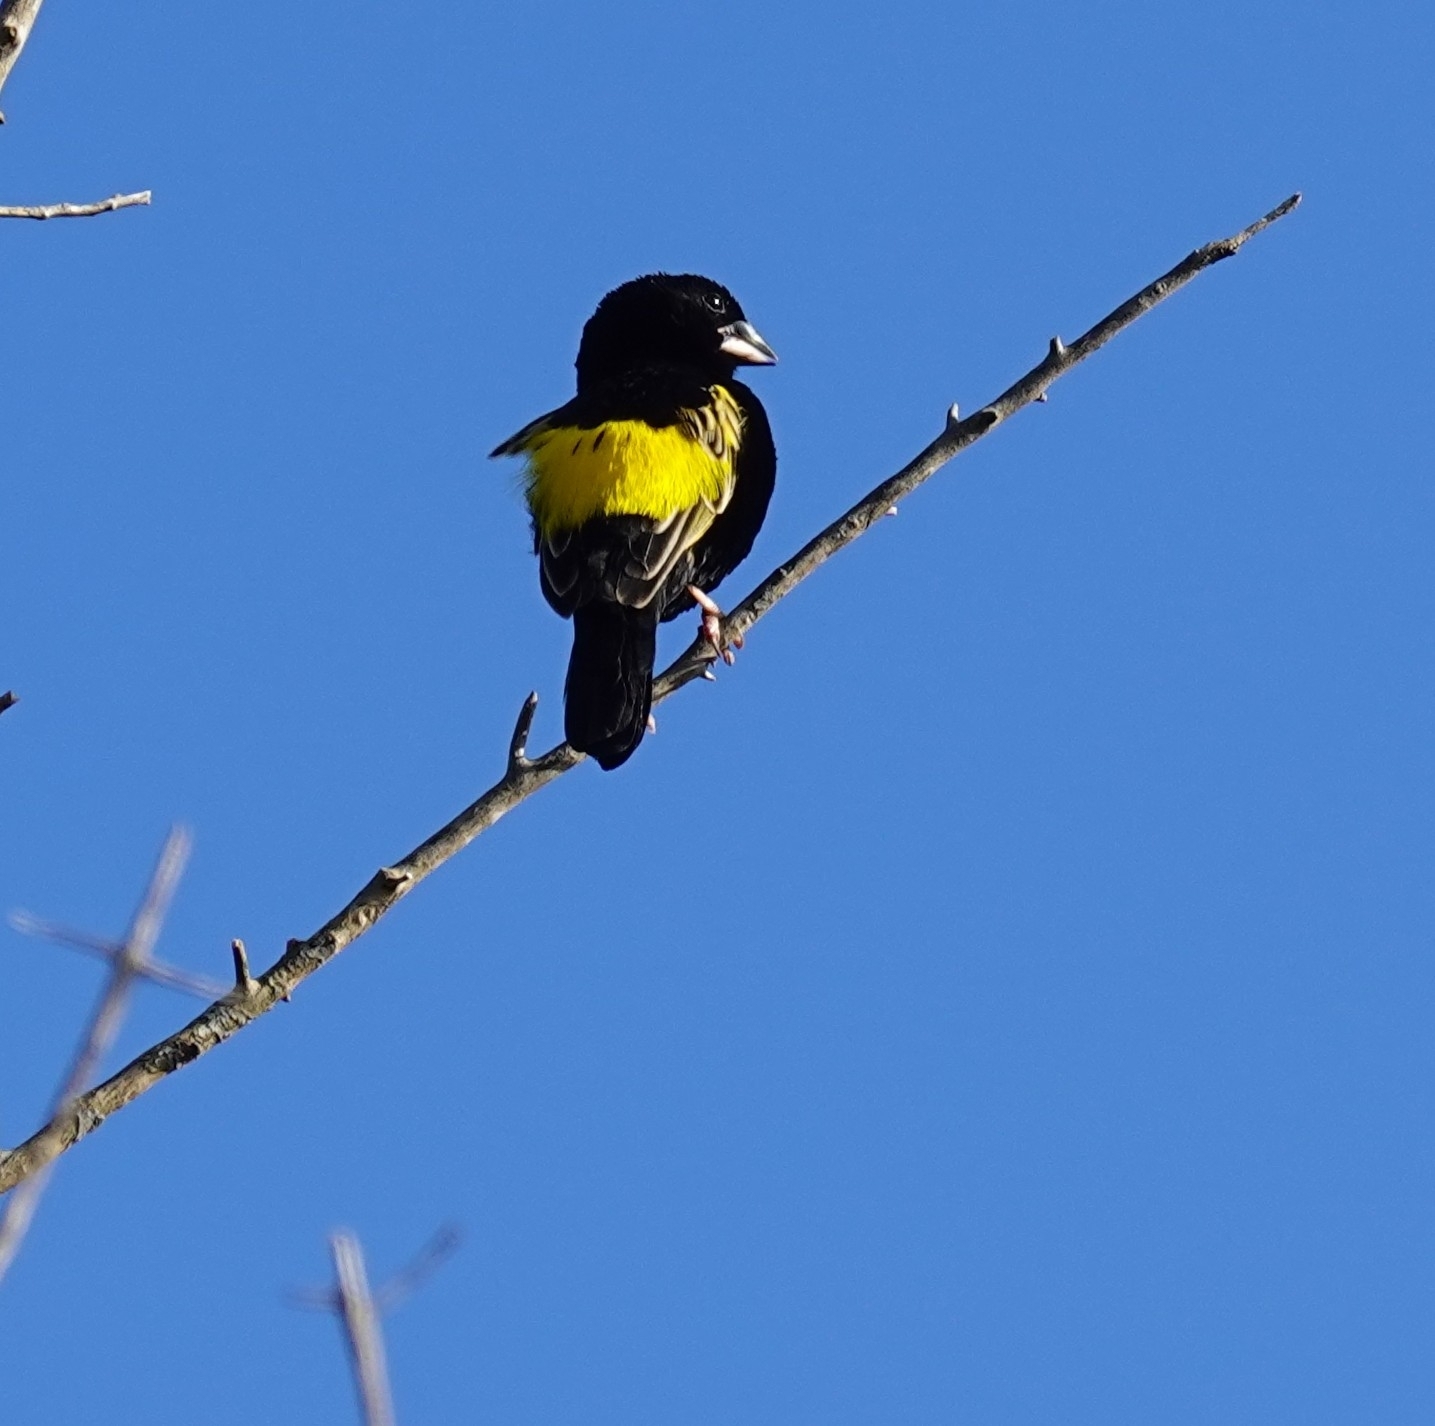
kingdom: Animalia
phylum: Chordata
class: Aves
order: Passeriformes
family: Ploceidae
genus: Euplectes
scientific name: Euplectes capensis
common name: Yellow bishop
